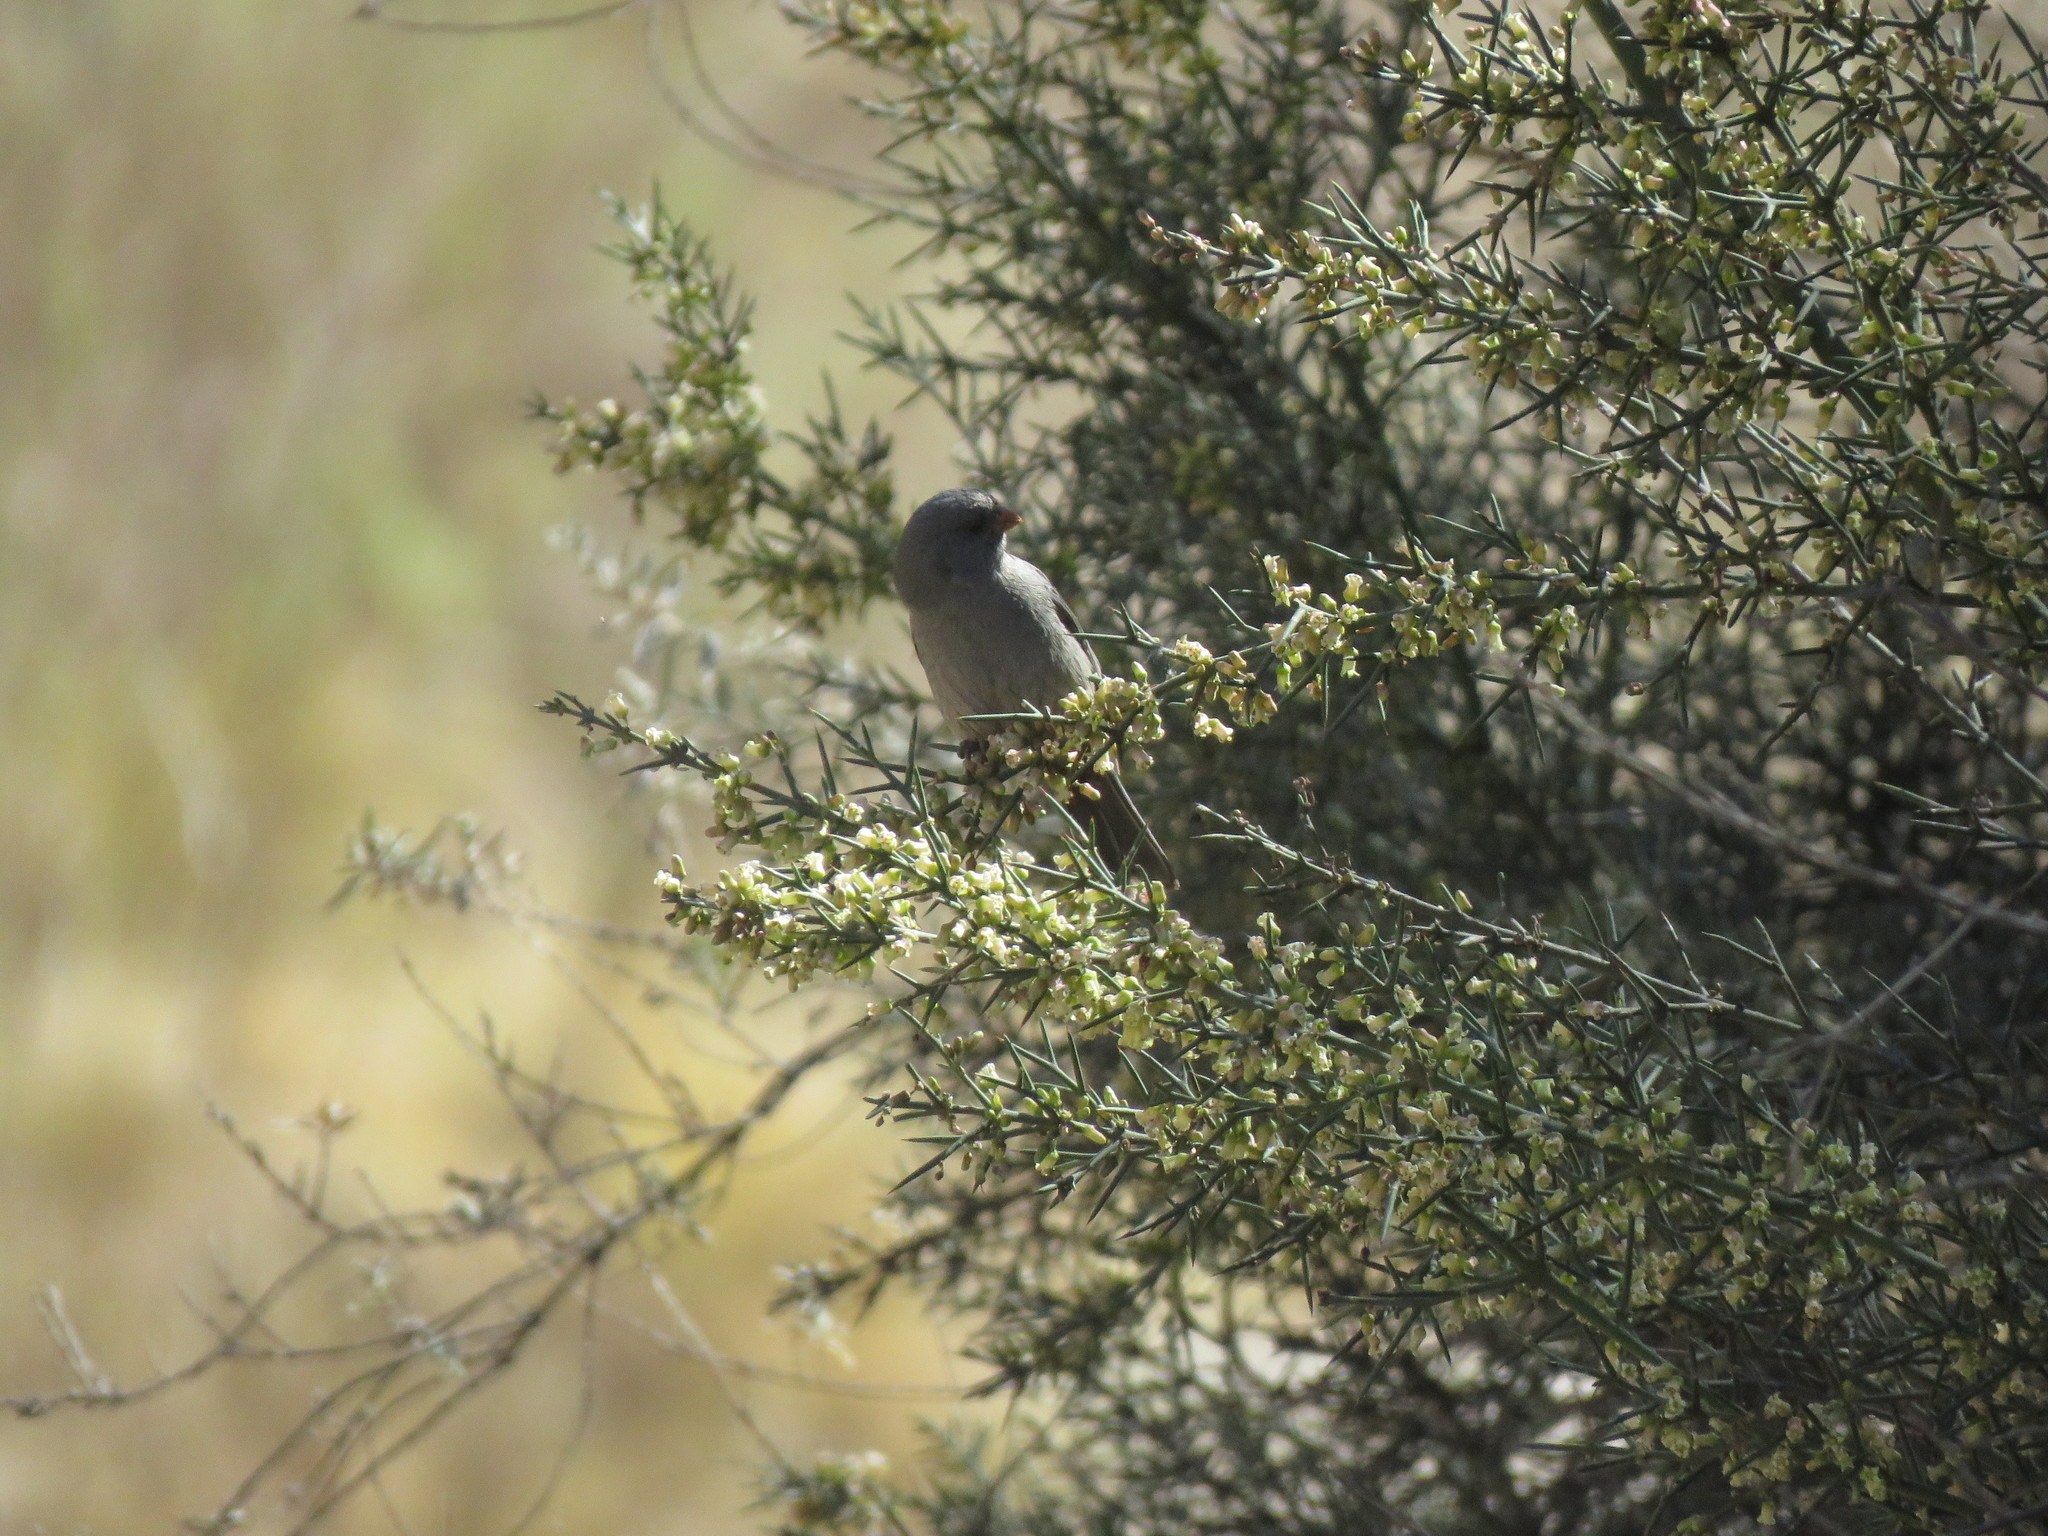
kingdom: Animalia
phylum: Chordata
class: Aves
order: Passeriformes
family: Thraupidae
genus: Catamenia
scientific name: Catamenia inornata
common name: Plain-colored seedeater
